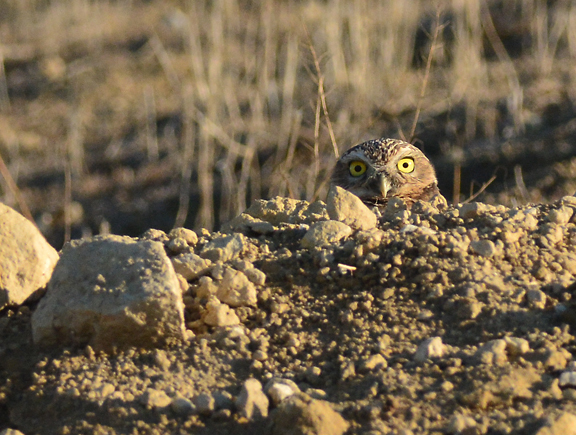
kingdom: Animalia
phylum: Chordata
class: Aves
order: Strigiformes
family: Strigidae
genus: Athene
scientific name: Athene cunicularia
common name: Burrowing owl
